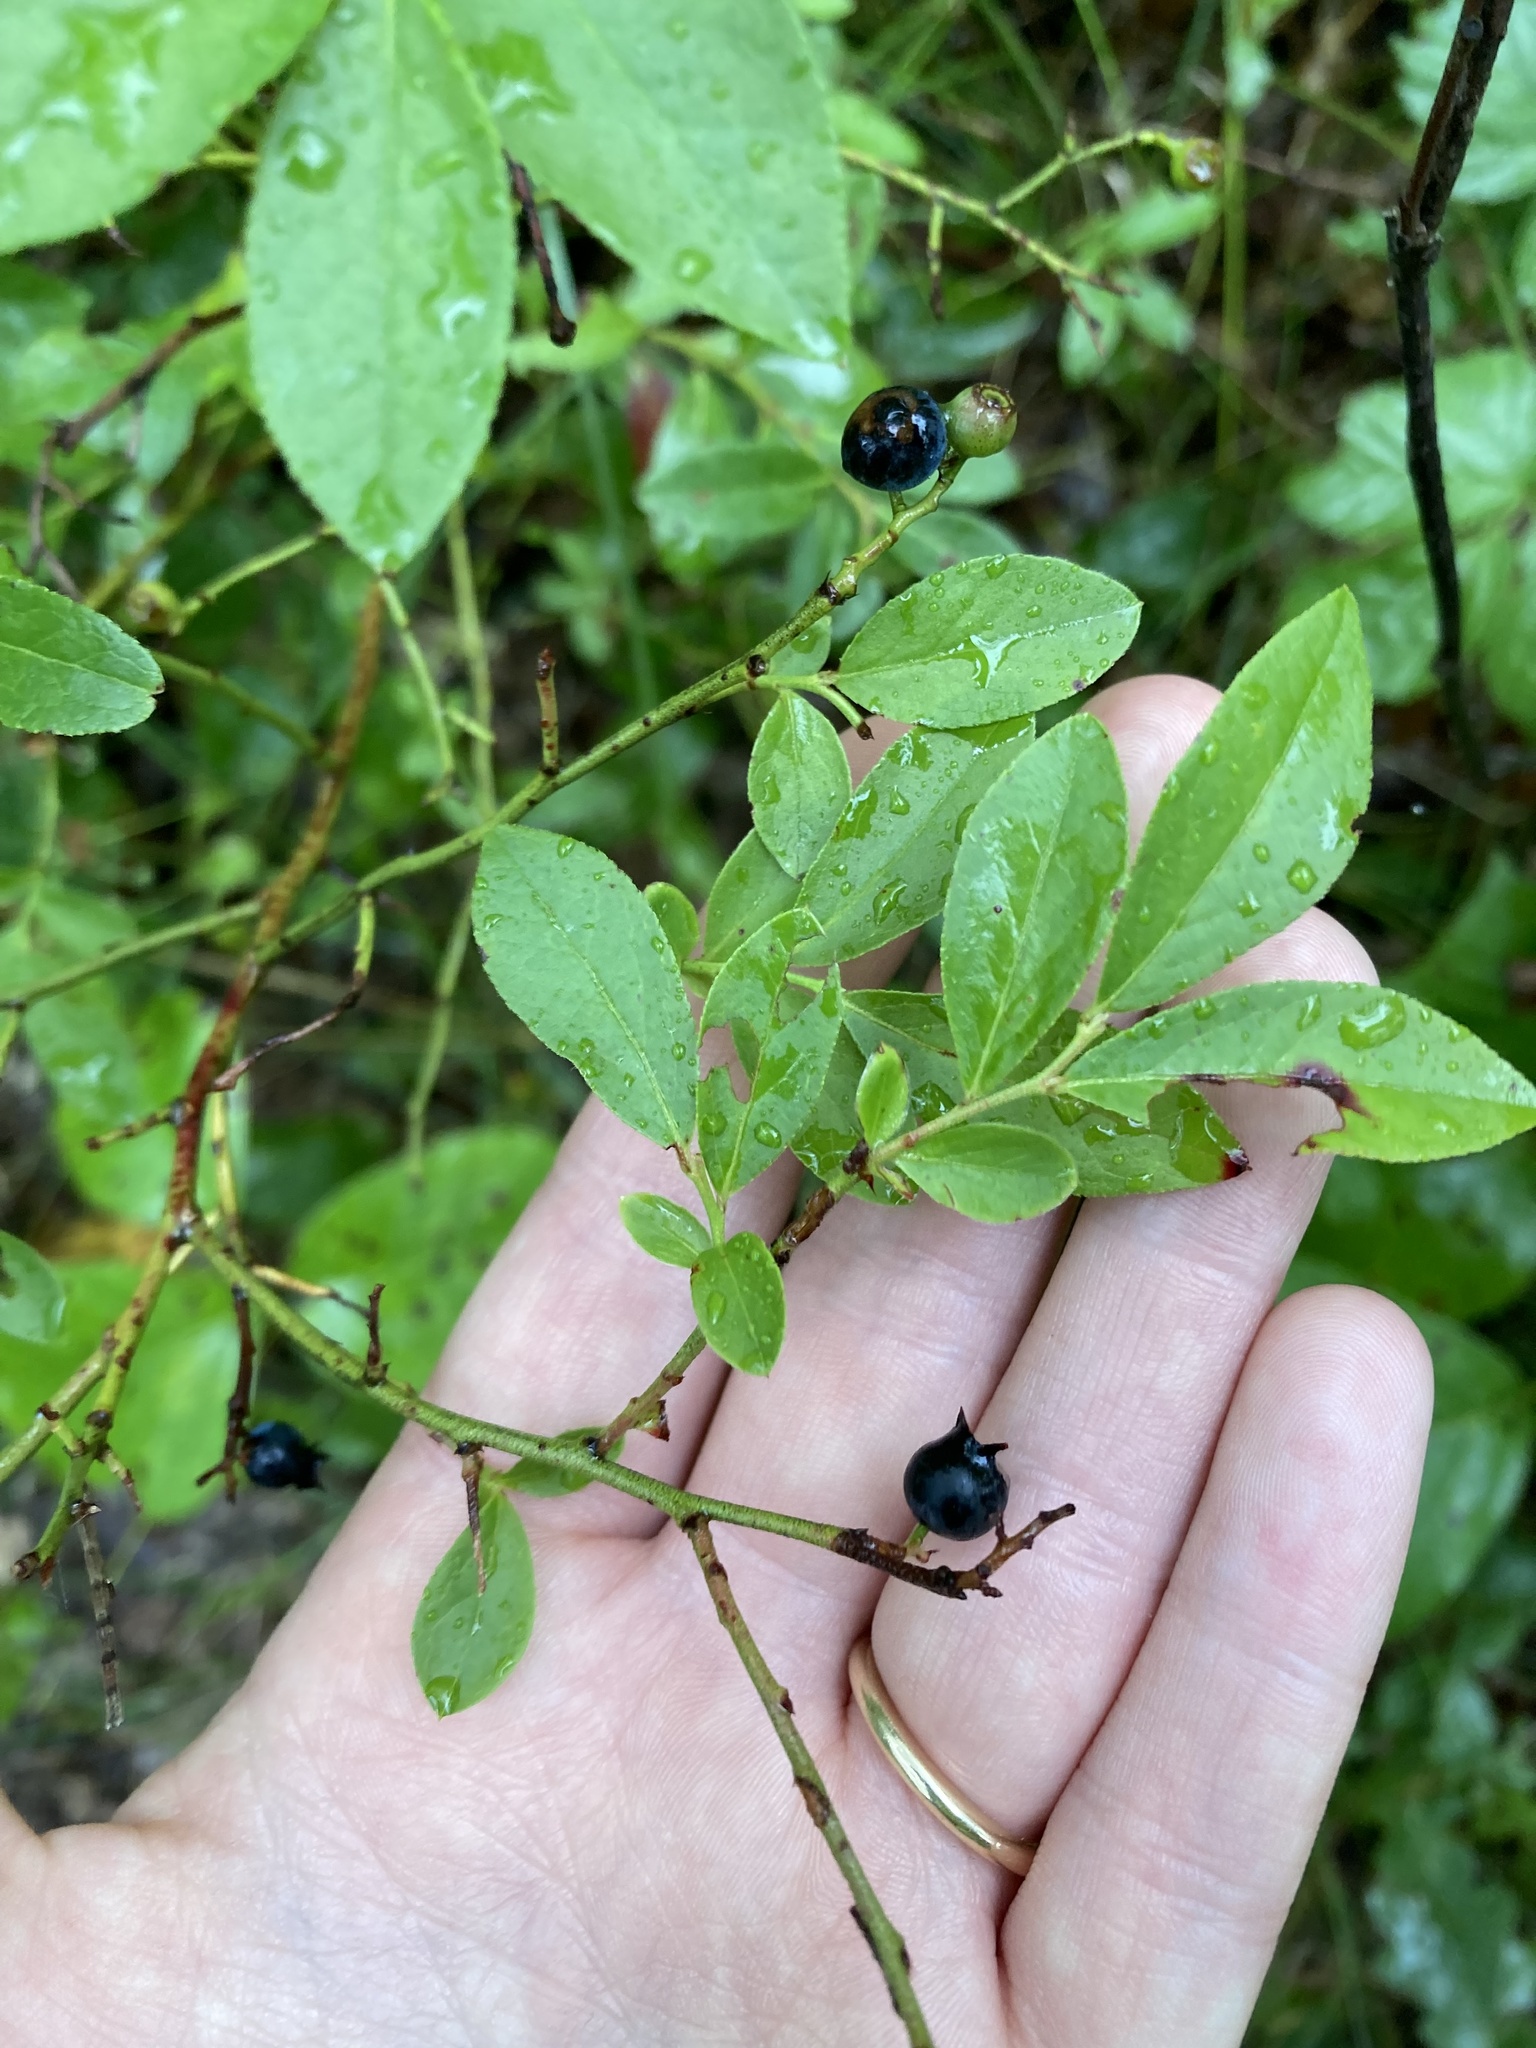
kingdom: Plantae
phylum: Tracheophyta
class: Magnoliopsida
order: Ericales
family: Ericaceae
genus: Vaccinium
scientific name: Vaccinium angustifolium
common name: Early lowbush blueberry
